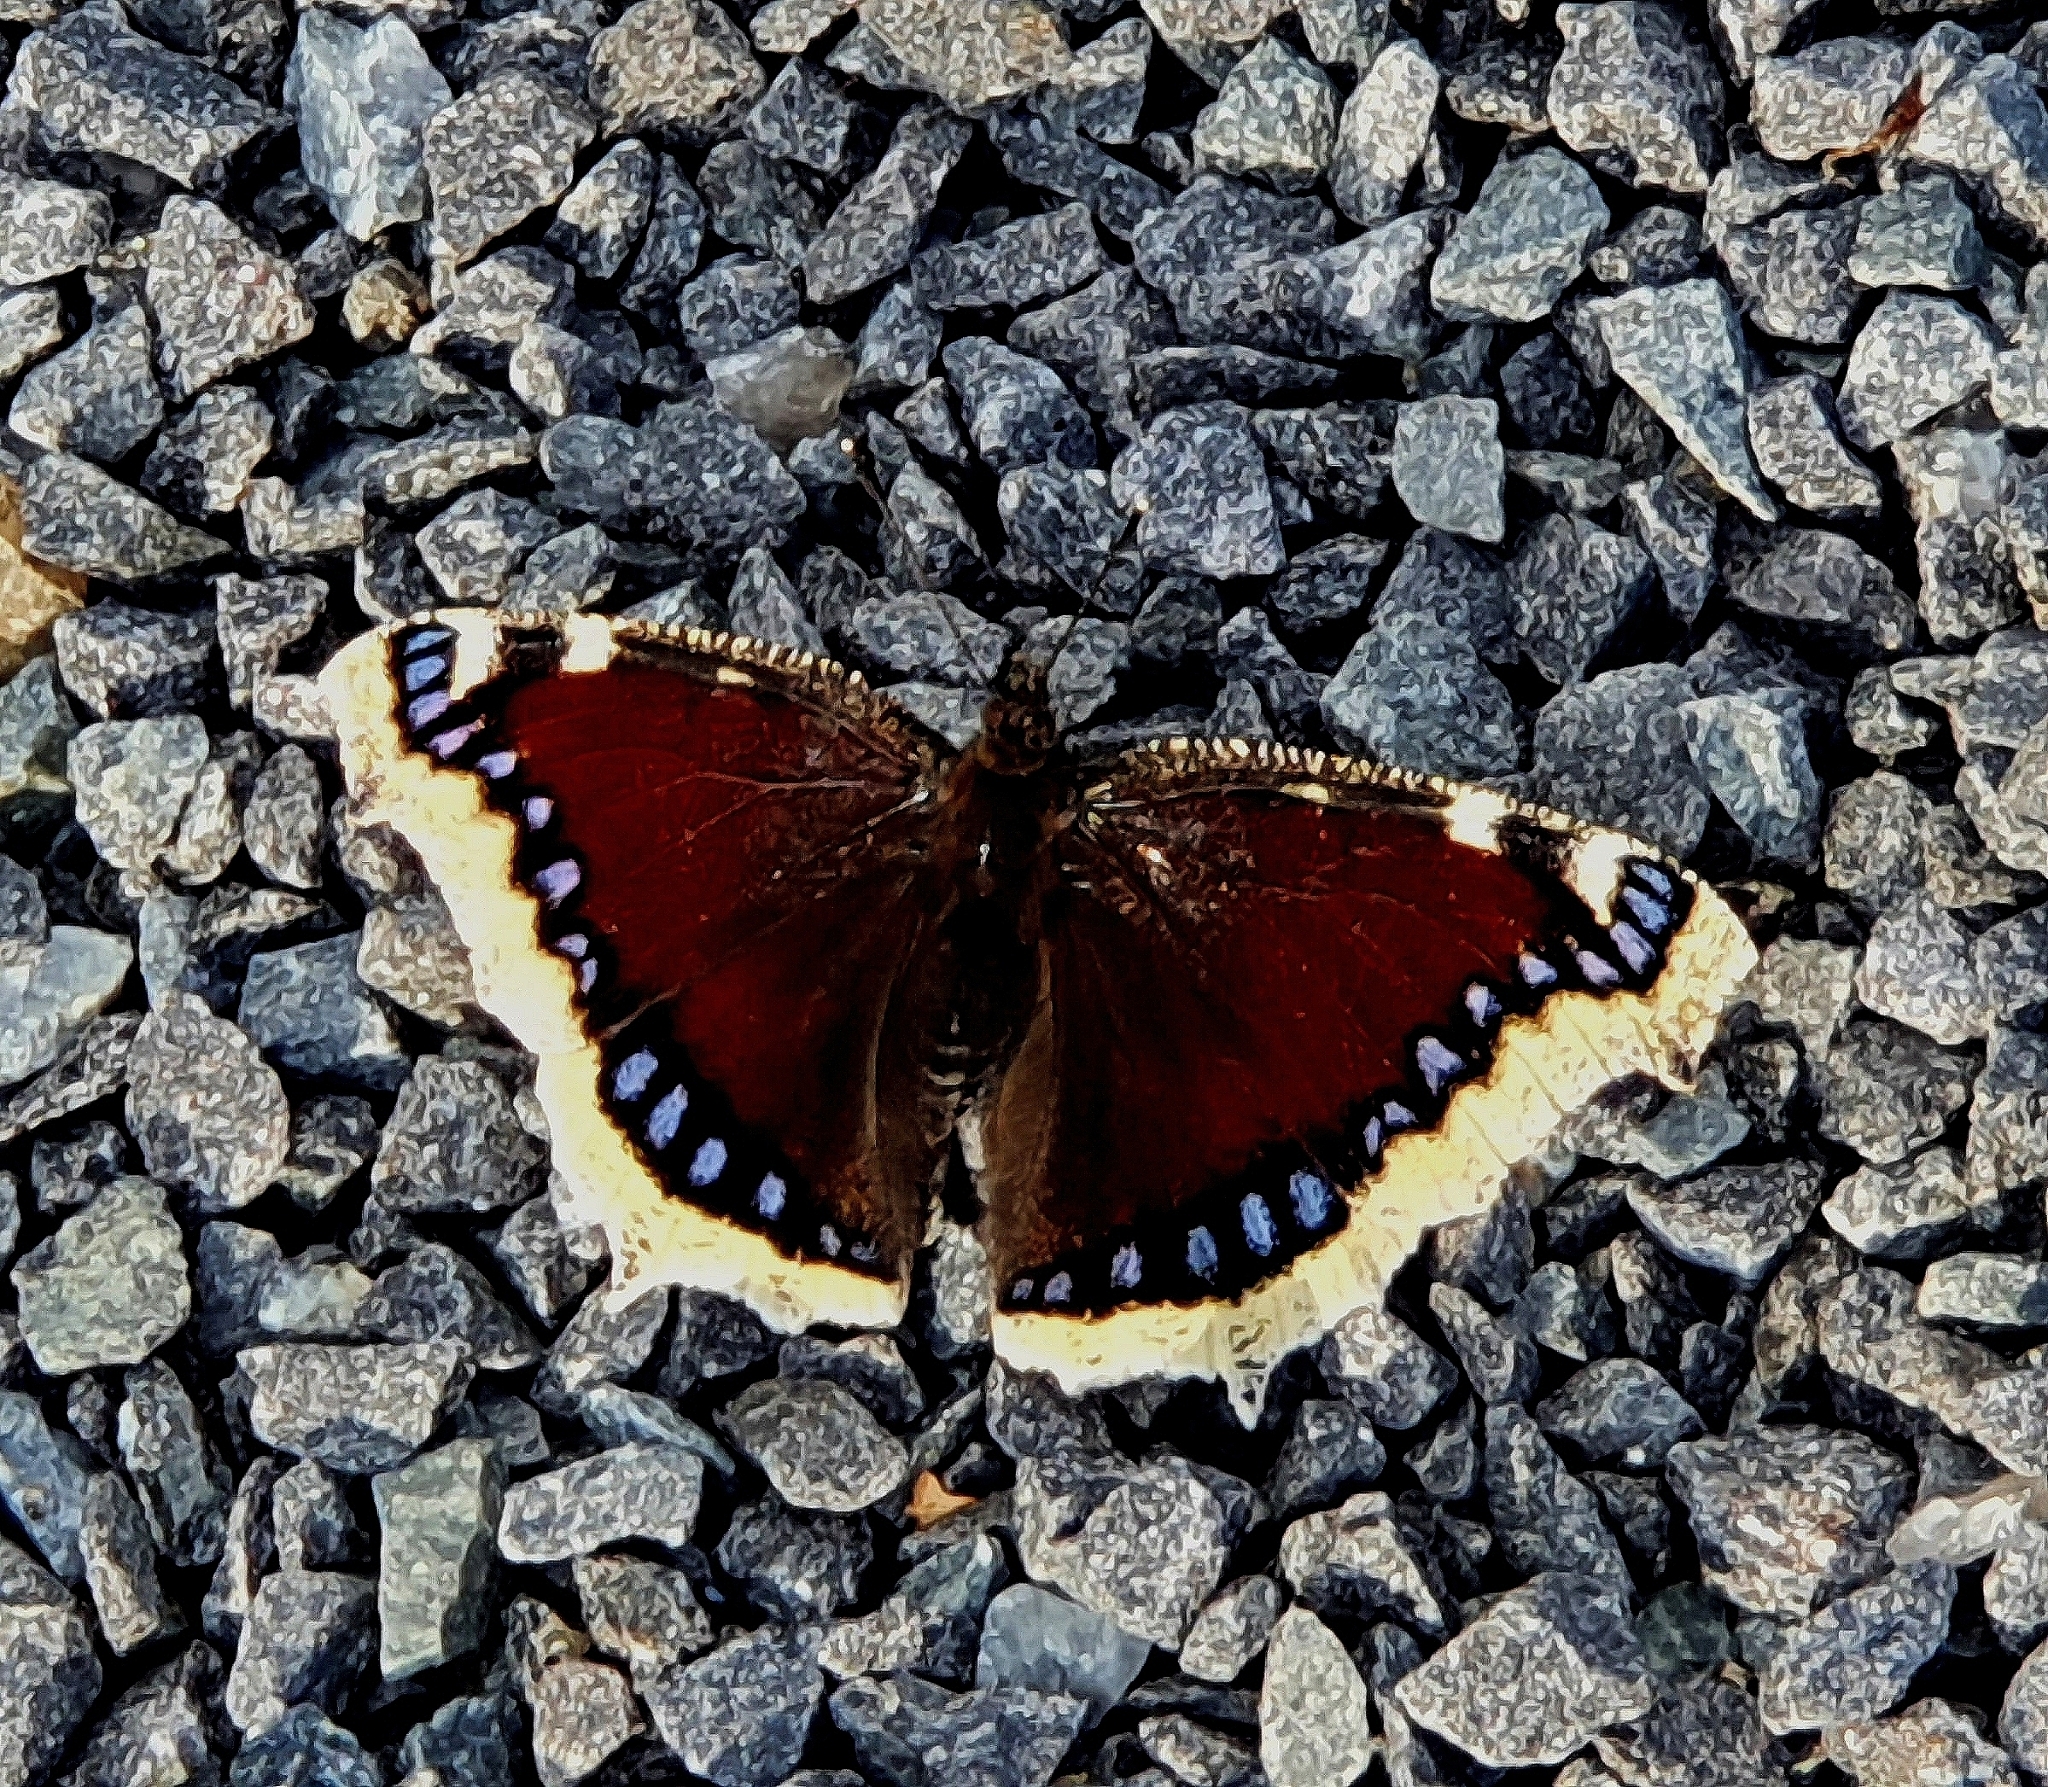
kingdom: Animalia
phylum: Arthropoda
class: Insecta
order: Lepidoptera
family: Nymphalidae
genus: Nymphalis
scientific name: Nymphalis antiopa
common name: Camberwell beauty
